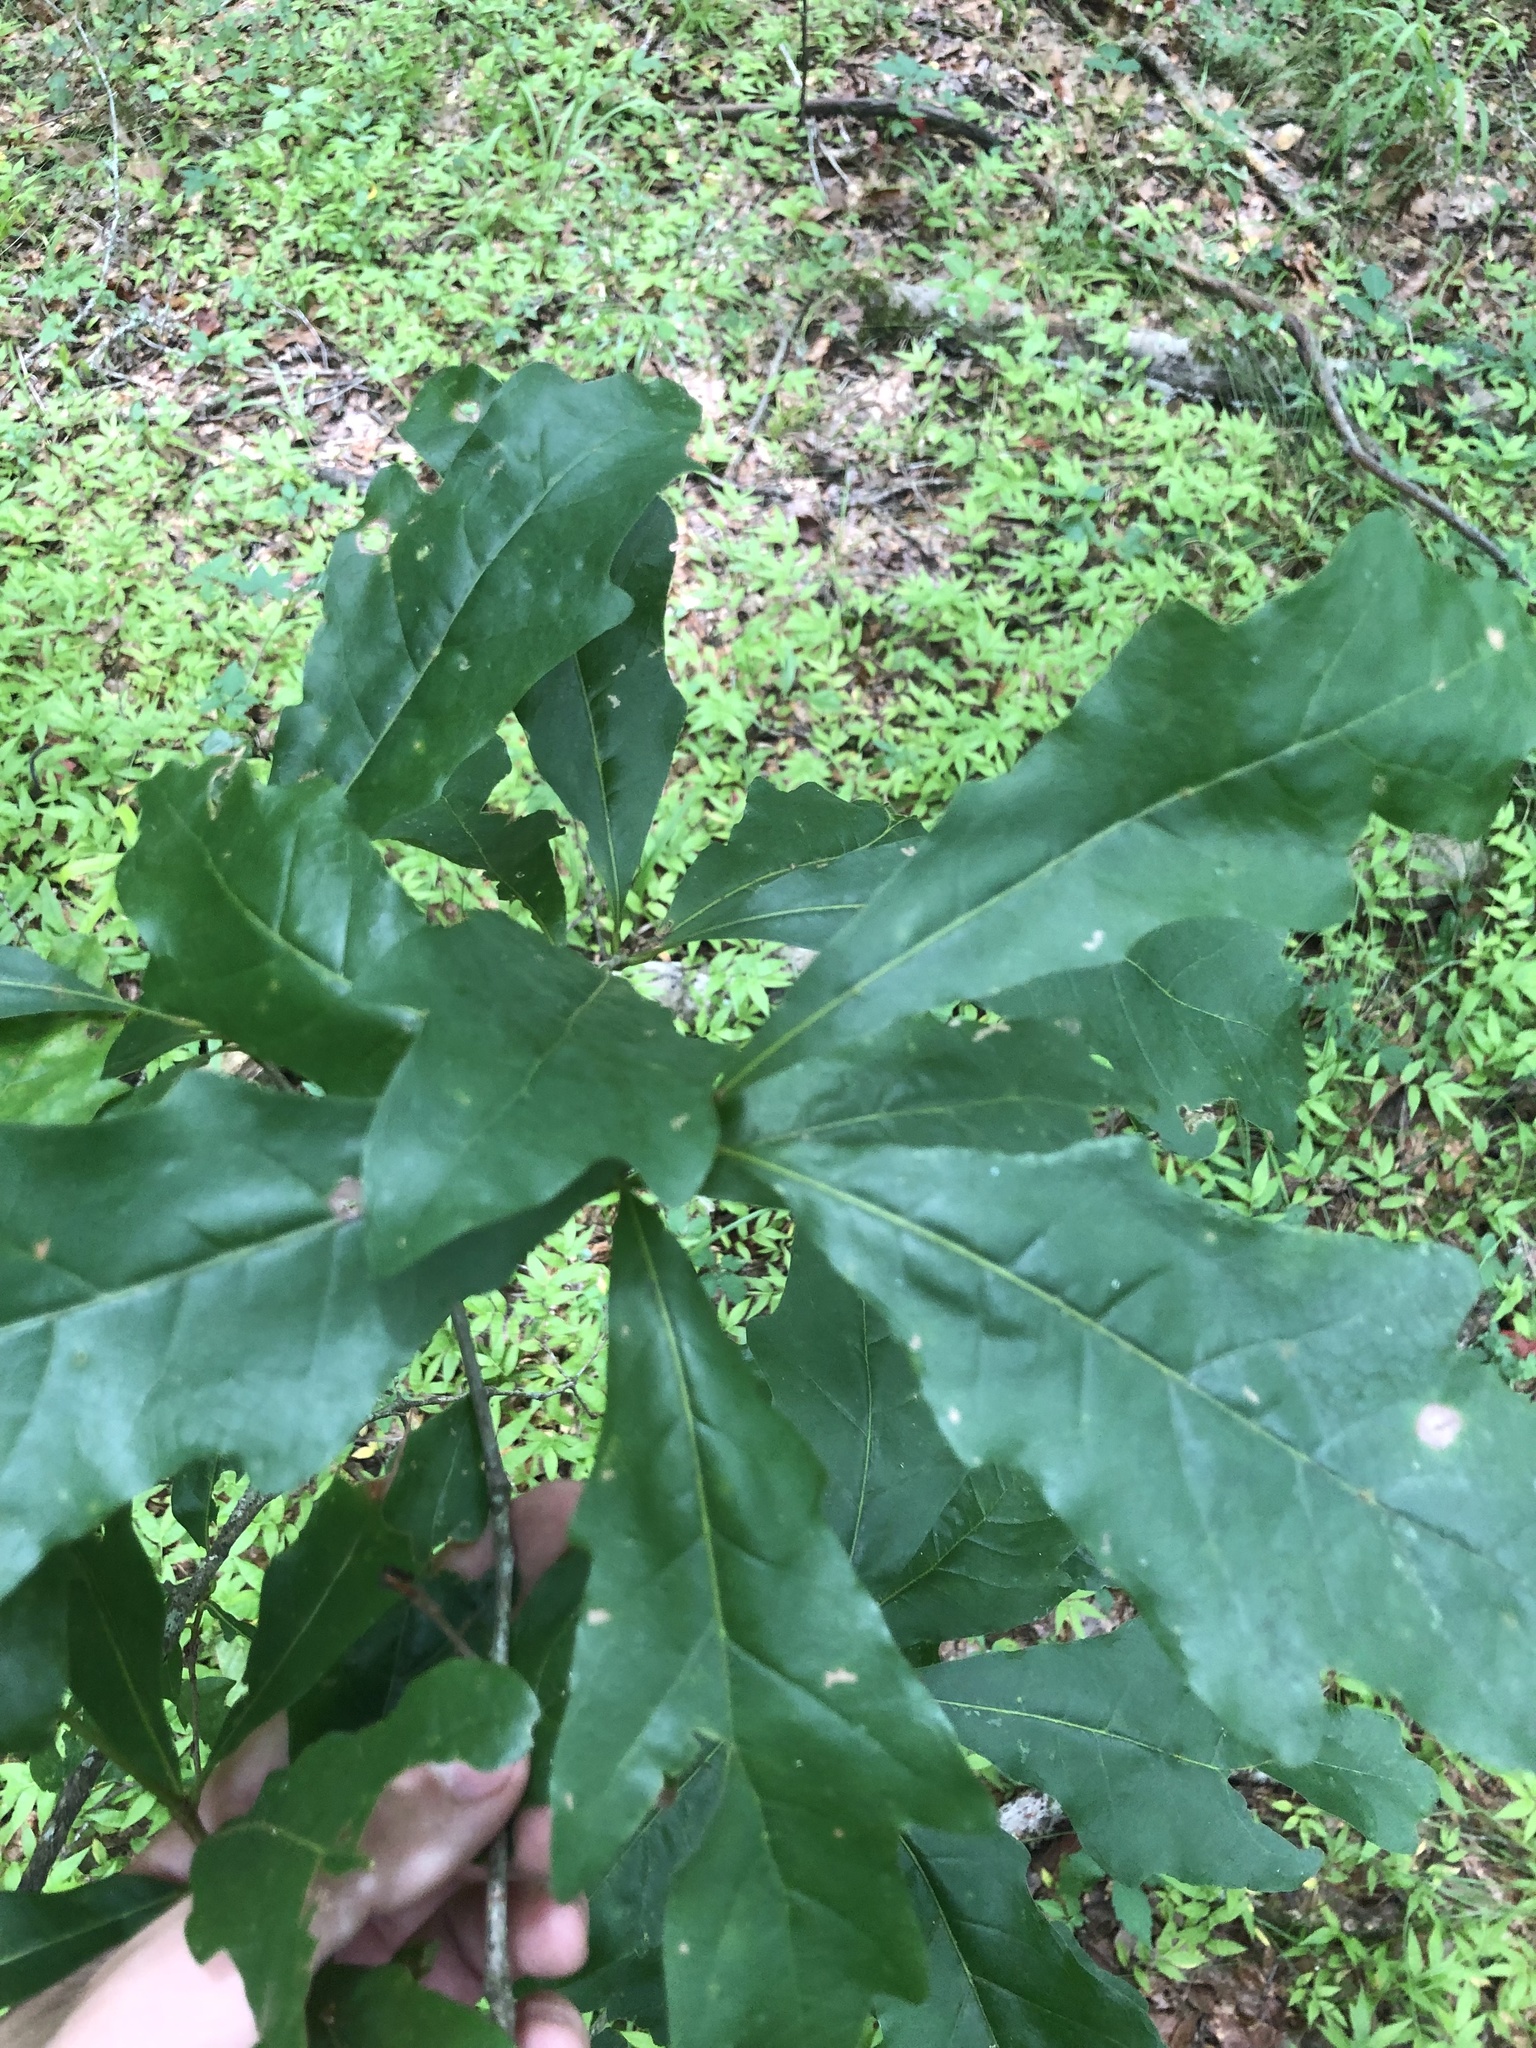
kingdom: Plantae
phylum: Tracheophyta
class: Magnoliopsida
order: Fagales
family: Fagaceae
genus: Quercus
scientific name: Quercus austrina
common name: Bastard white oak
